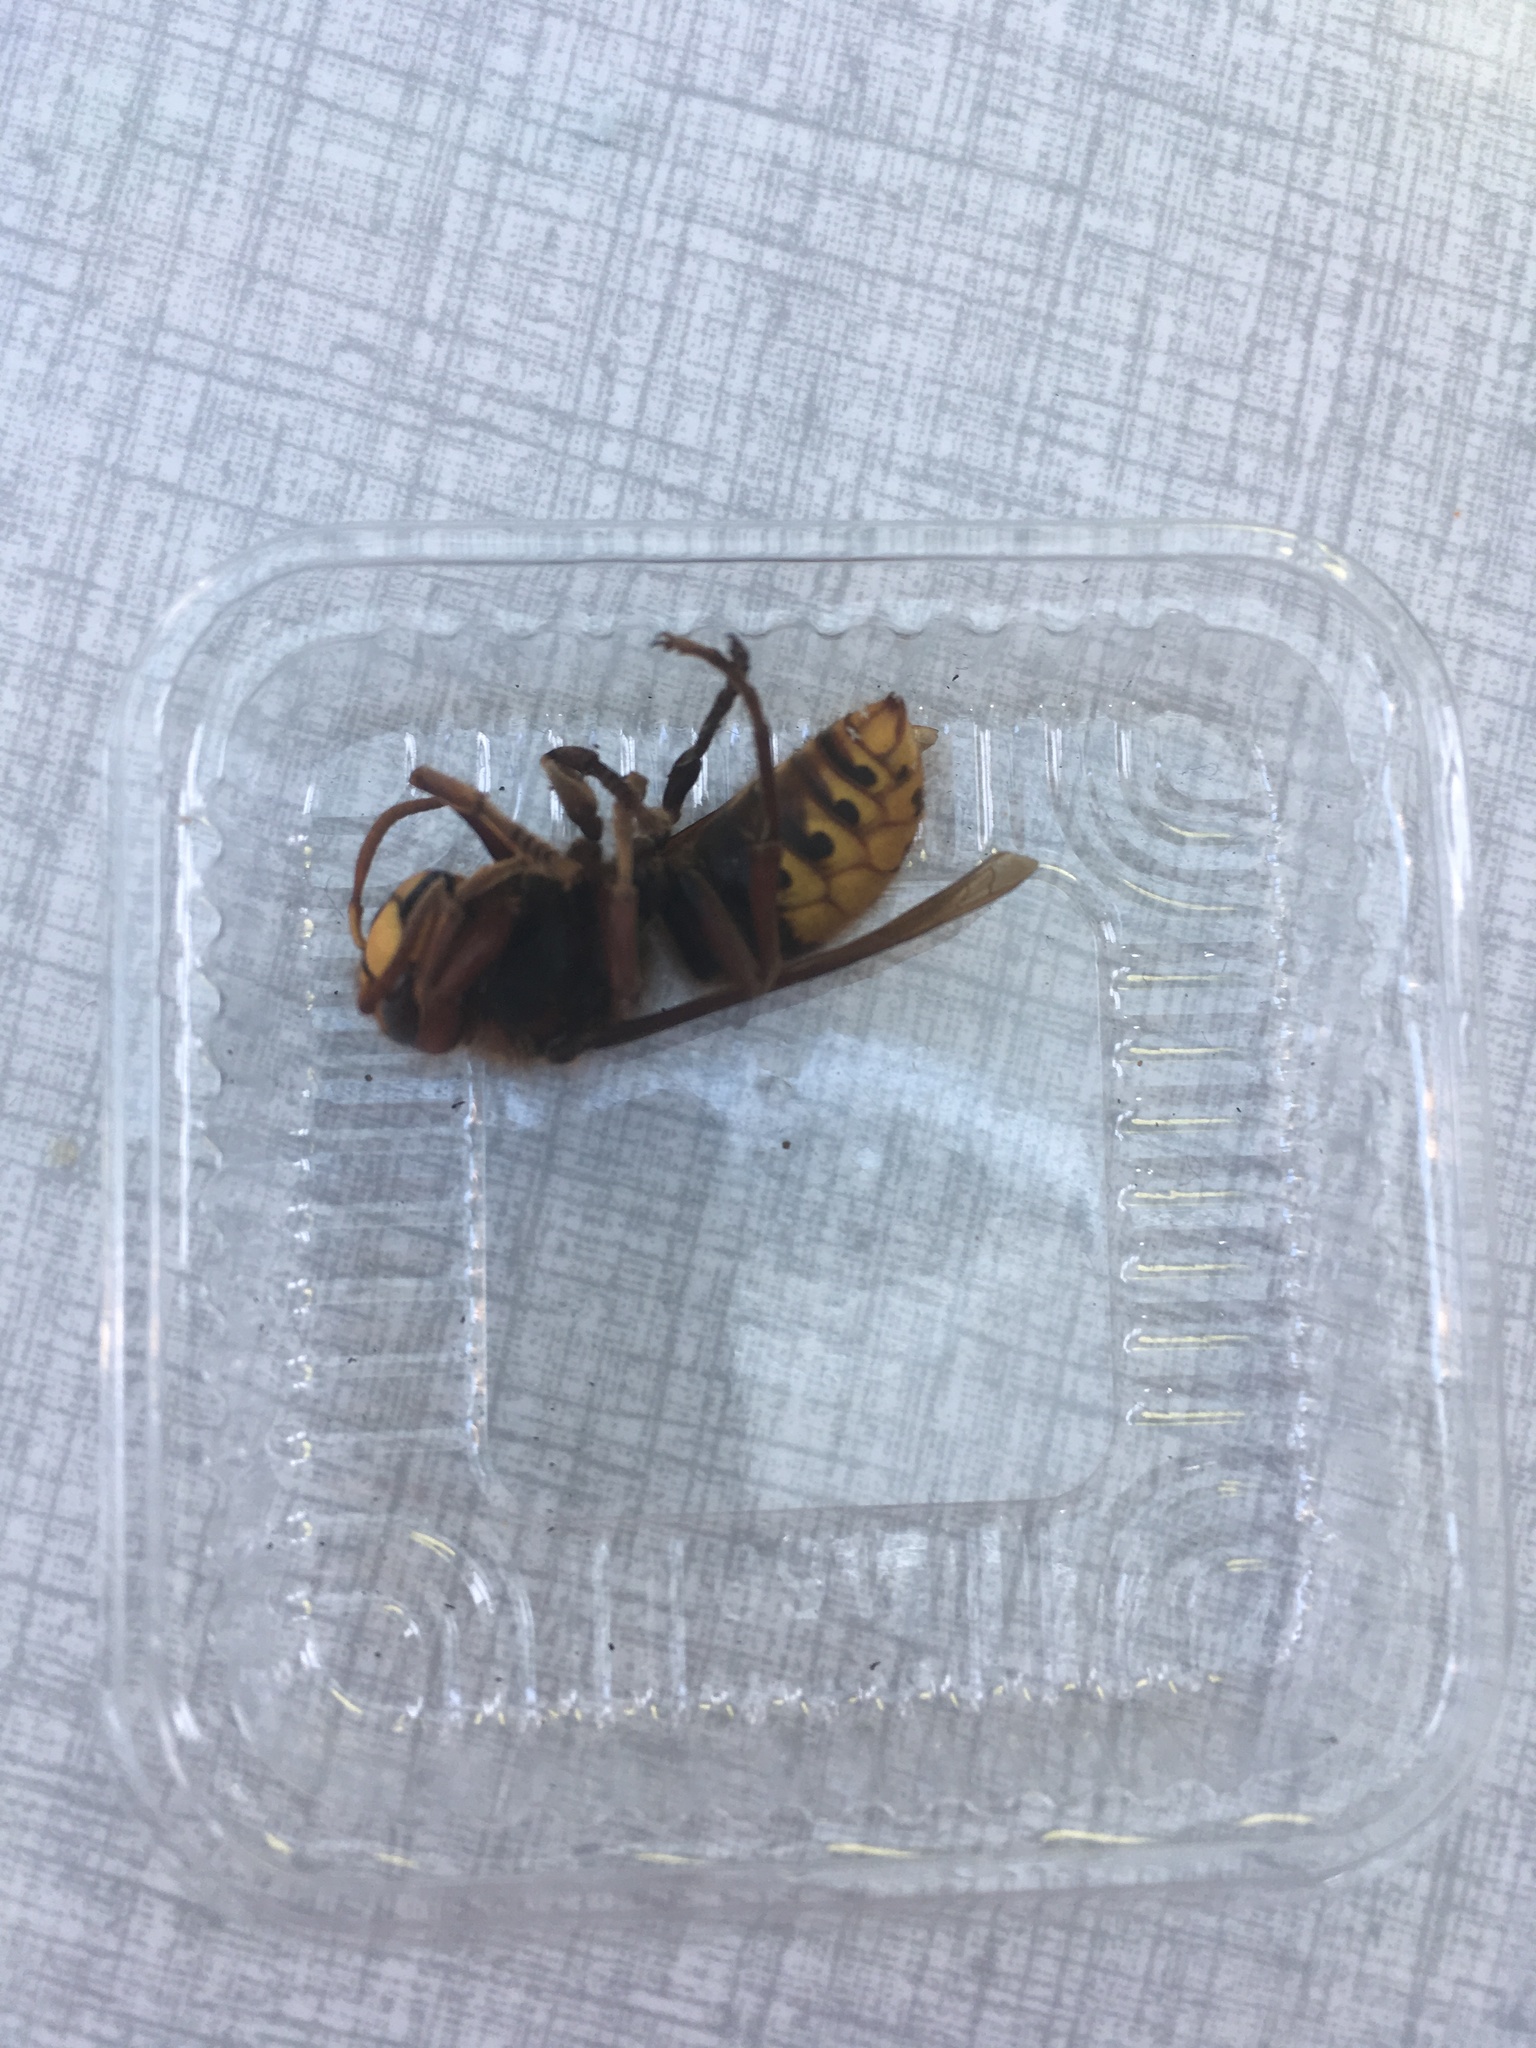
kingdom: Animalia
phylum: Arthropoda
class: Insecta
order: Hymenoptera
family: Vespidae
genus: Vespa
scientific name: Vespa crabro
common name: Hornet
